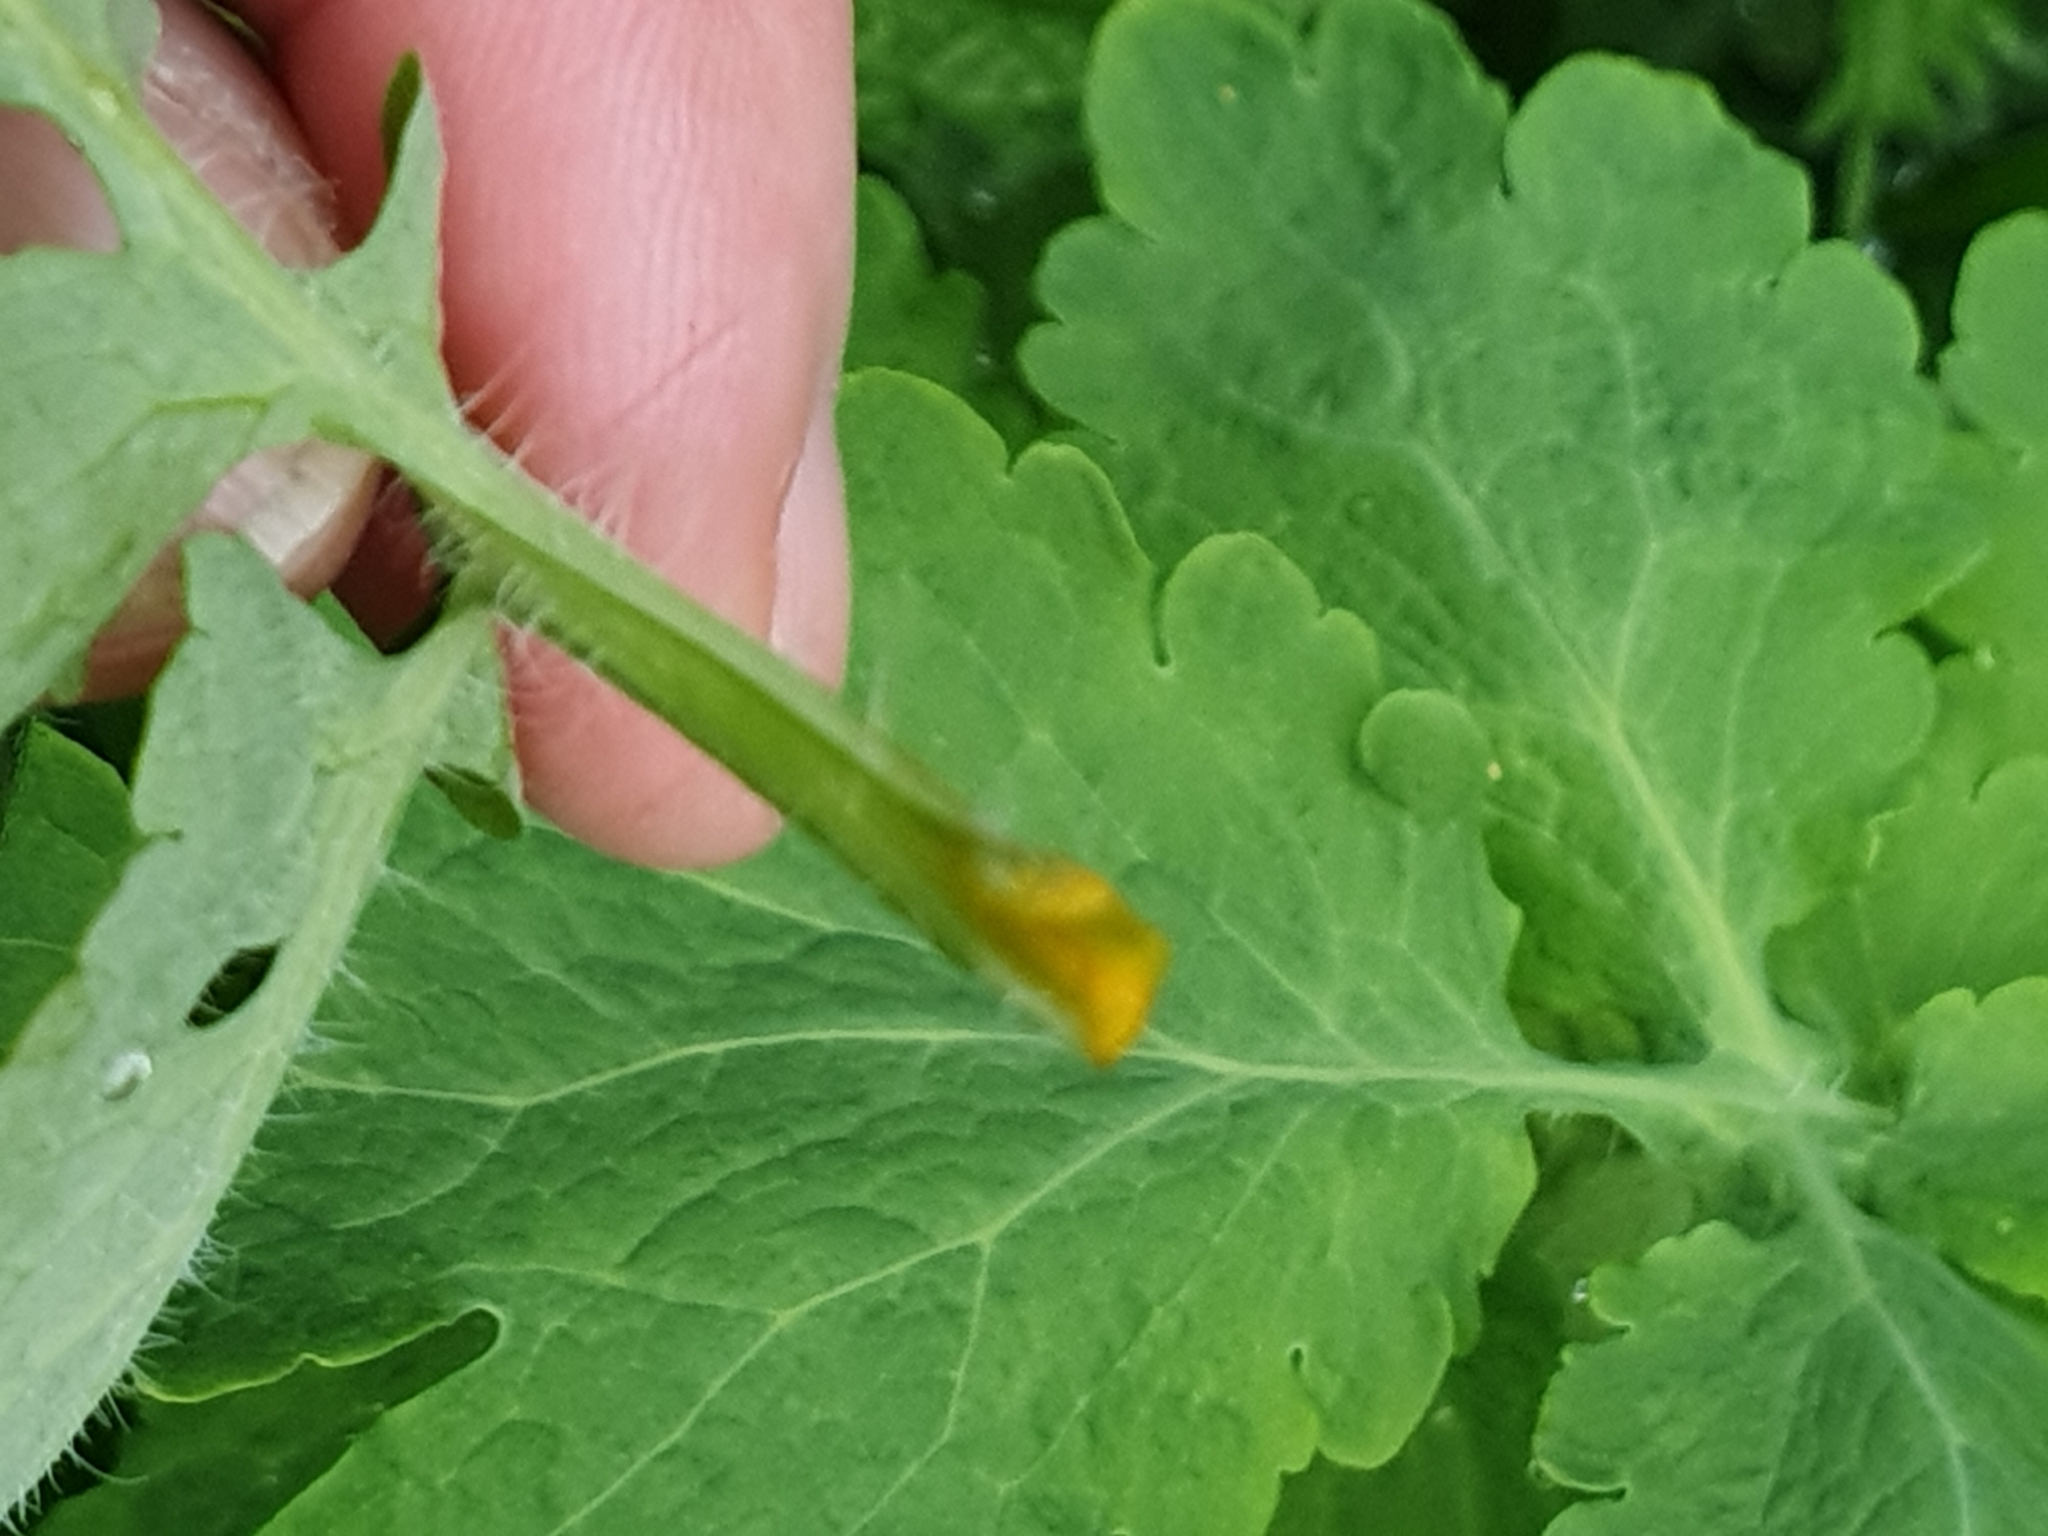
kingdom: Plantae
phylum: Tracheophyta
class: Magnoliopsida
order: Ranunculales
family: Papaveraceae
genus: Chelidonium
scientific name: Chelidonium majus
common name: Greater celandine
